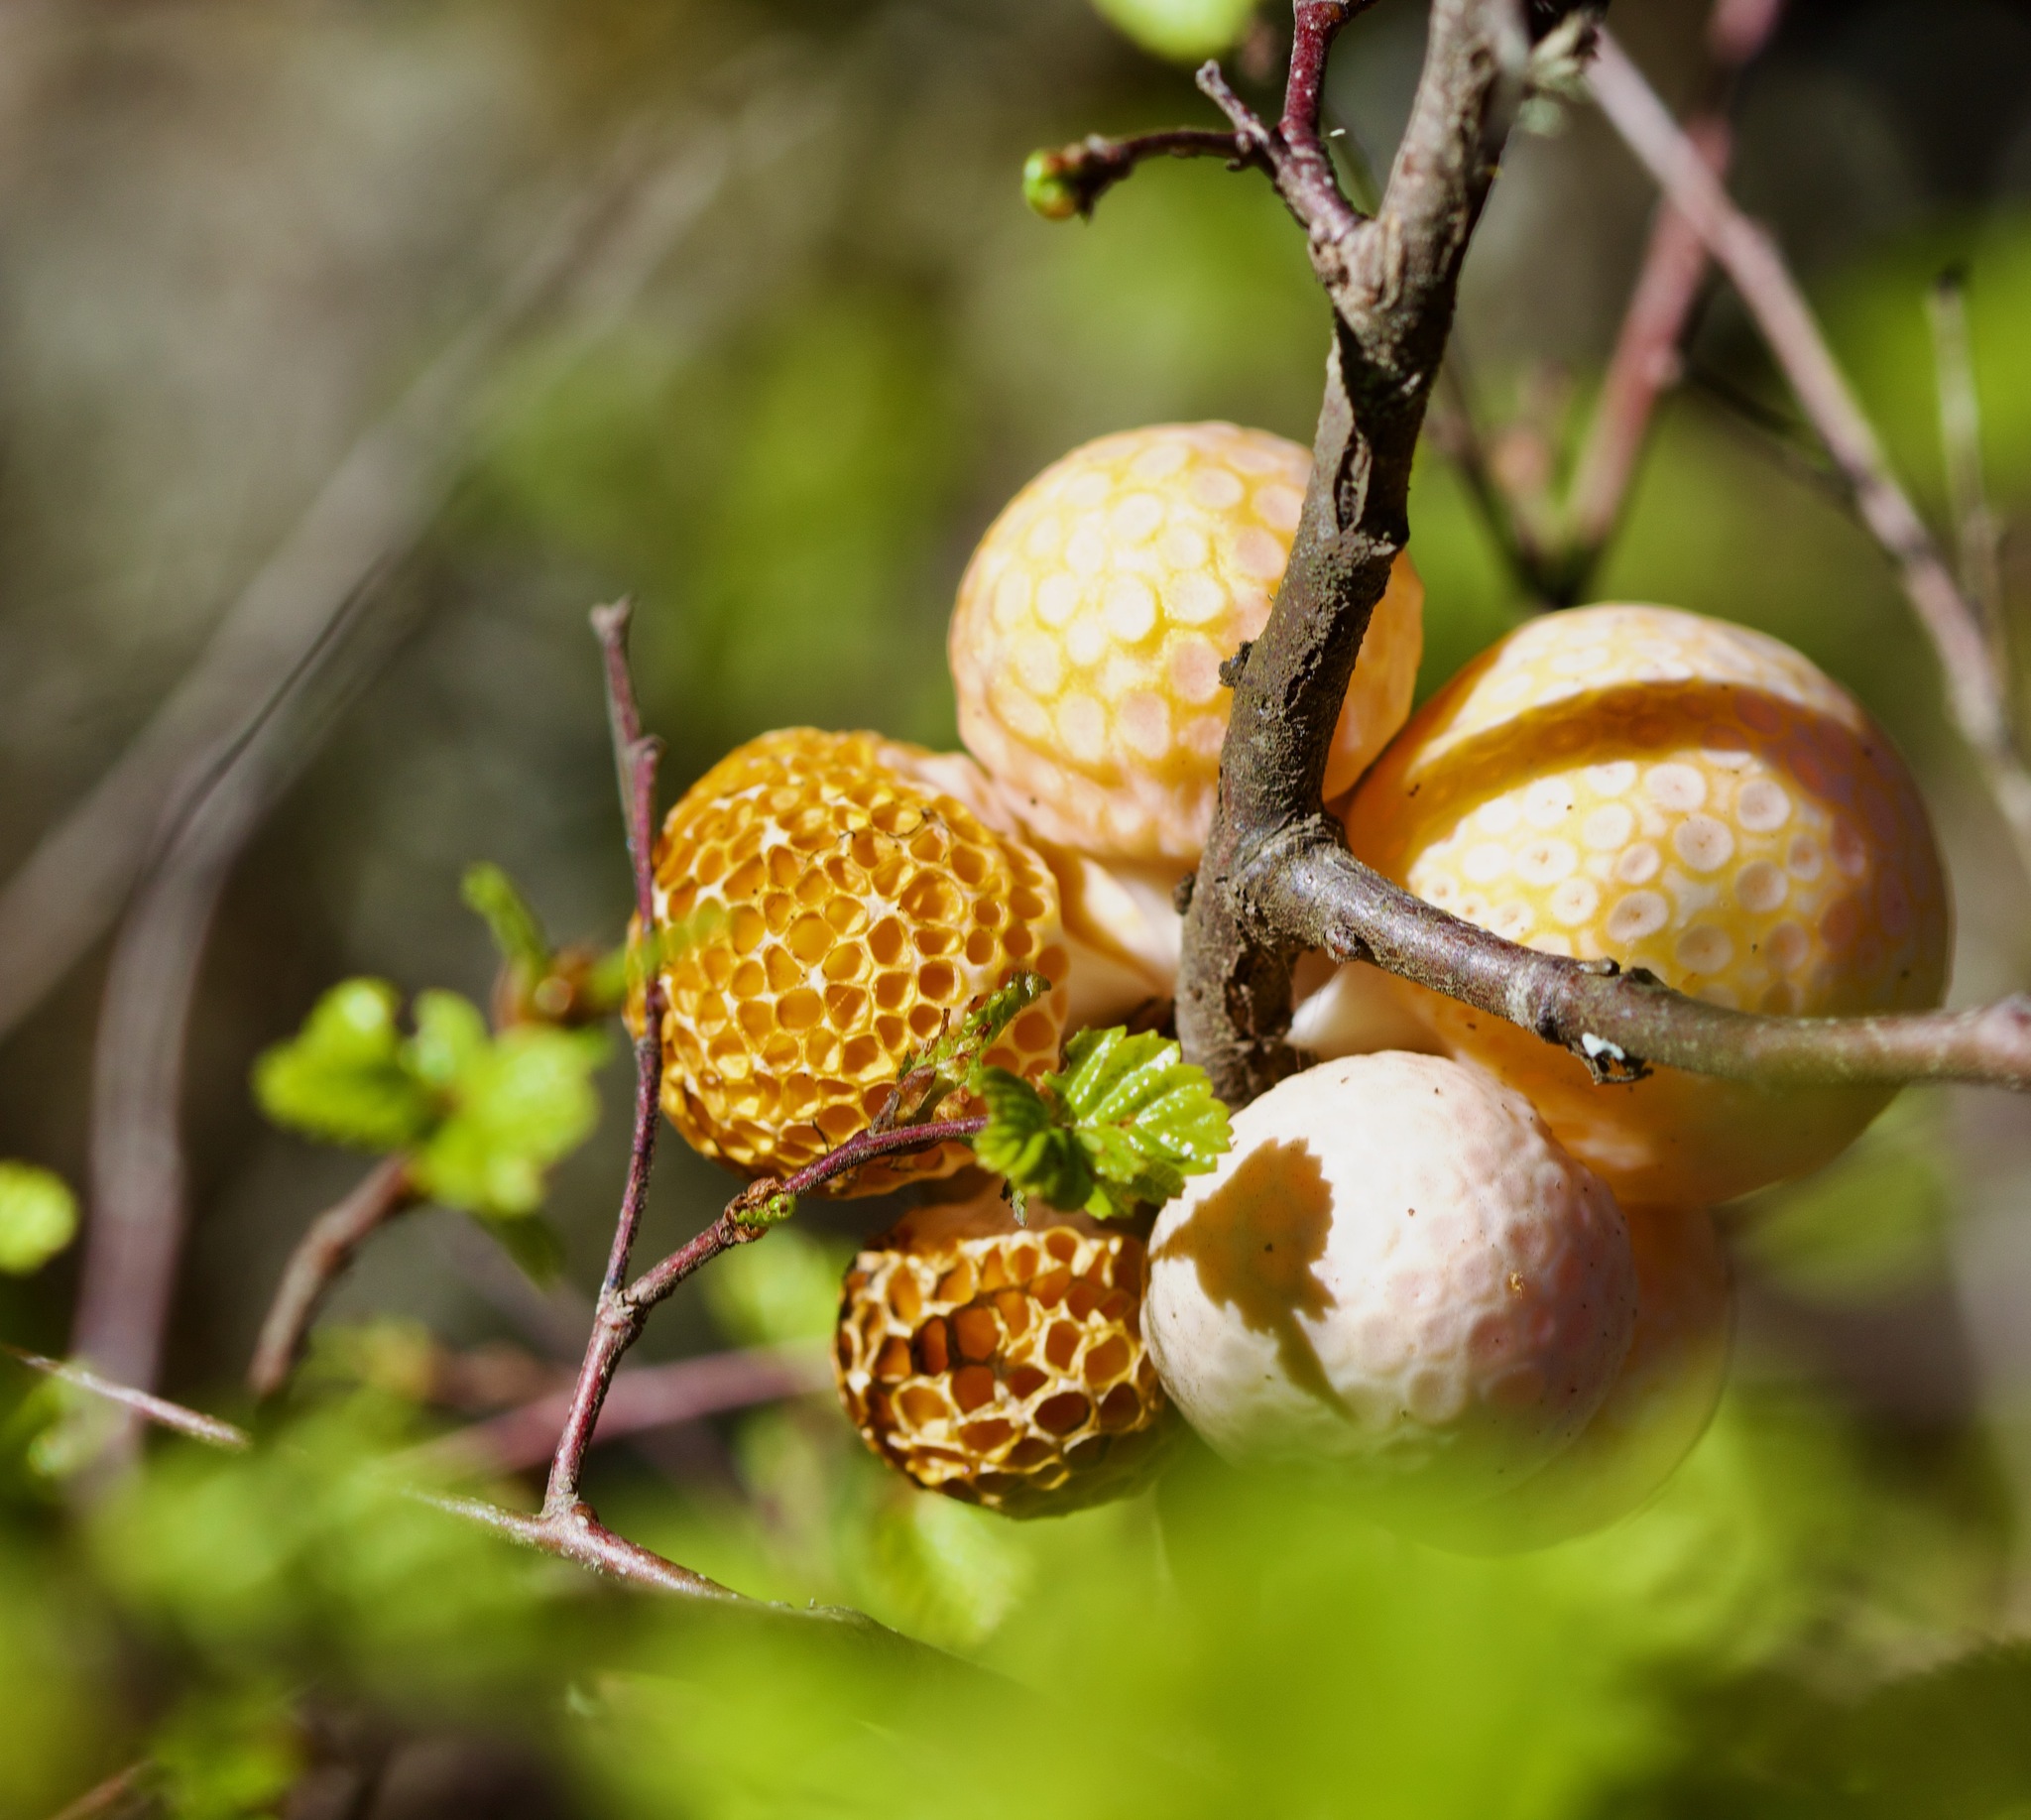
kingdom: Fungi
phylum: Ascomycota
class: Leotiomycetes
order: Cyttariales
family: Cyttariaceae
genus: Cyttaria
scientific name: Cyttaria espinosae
